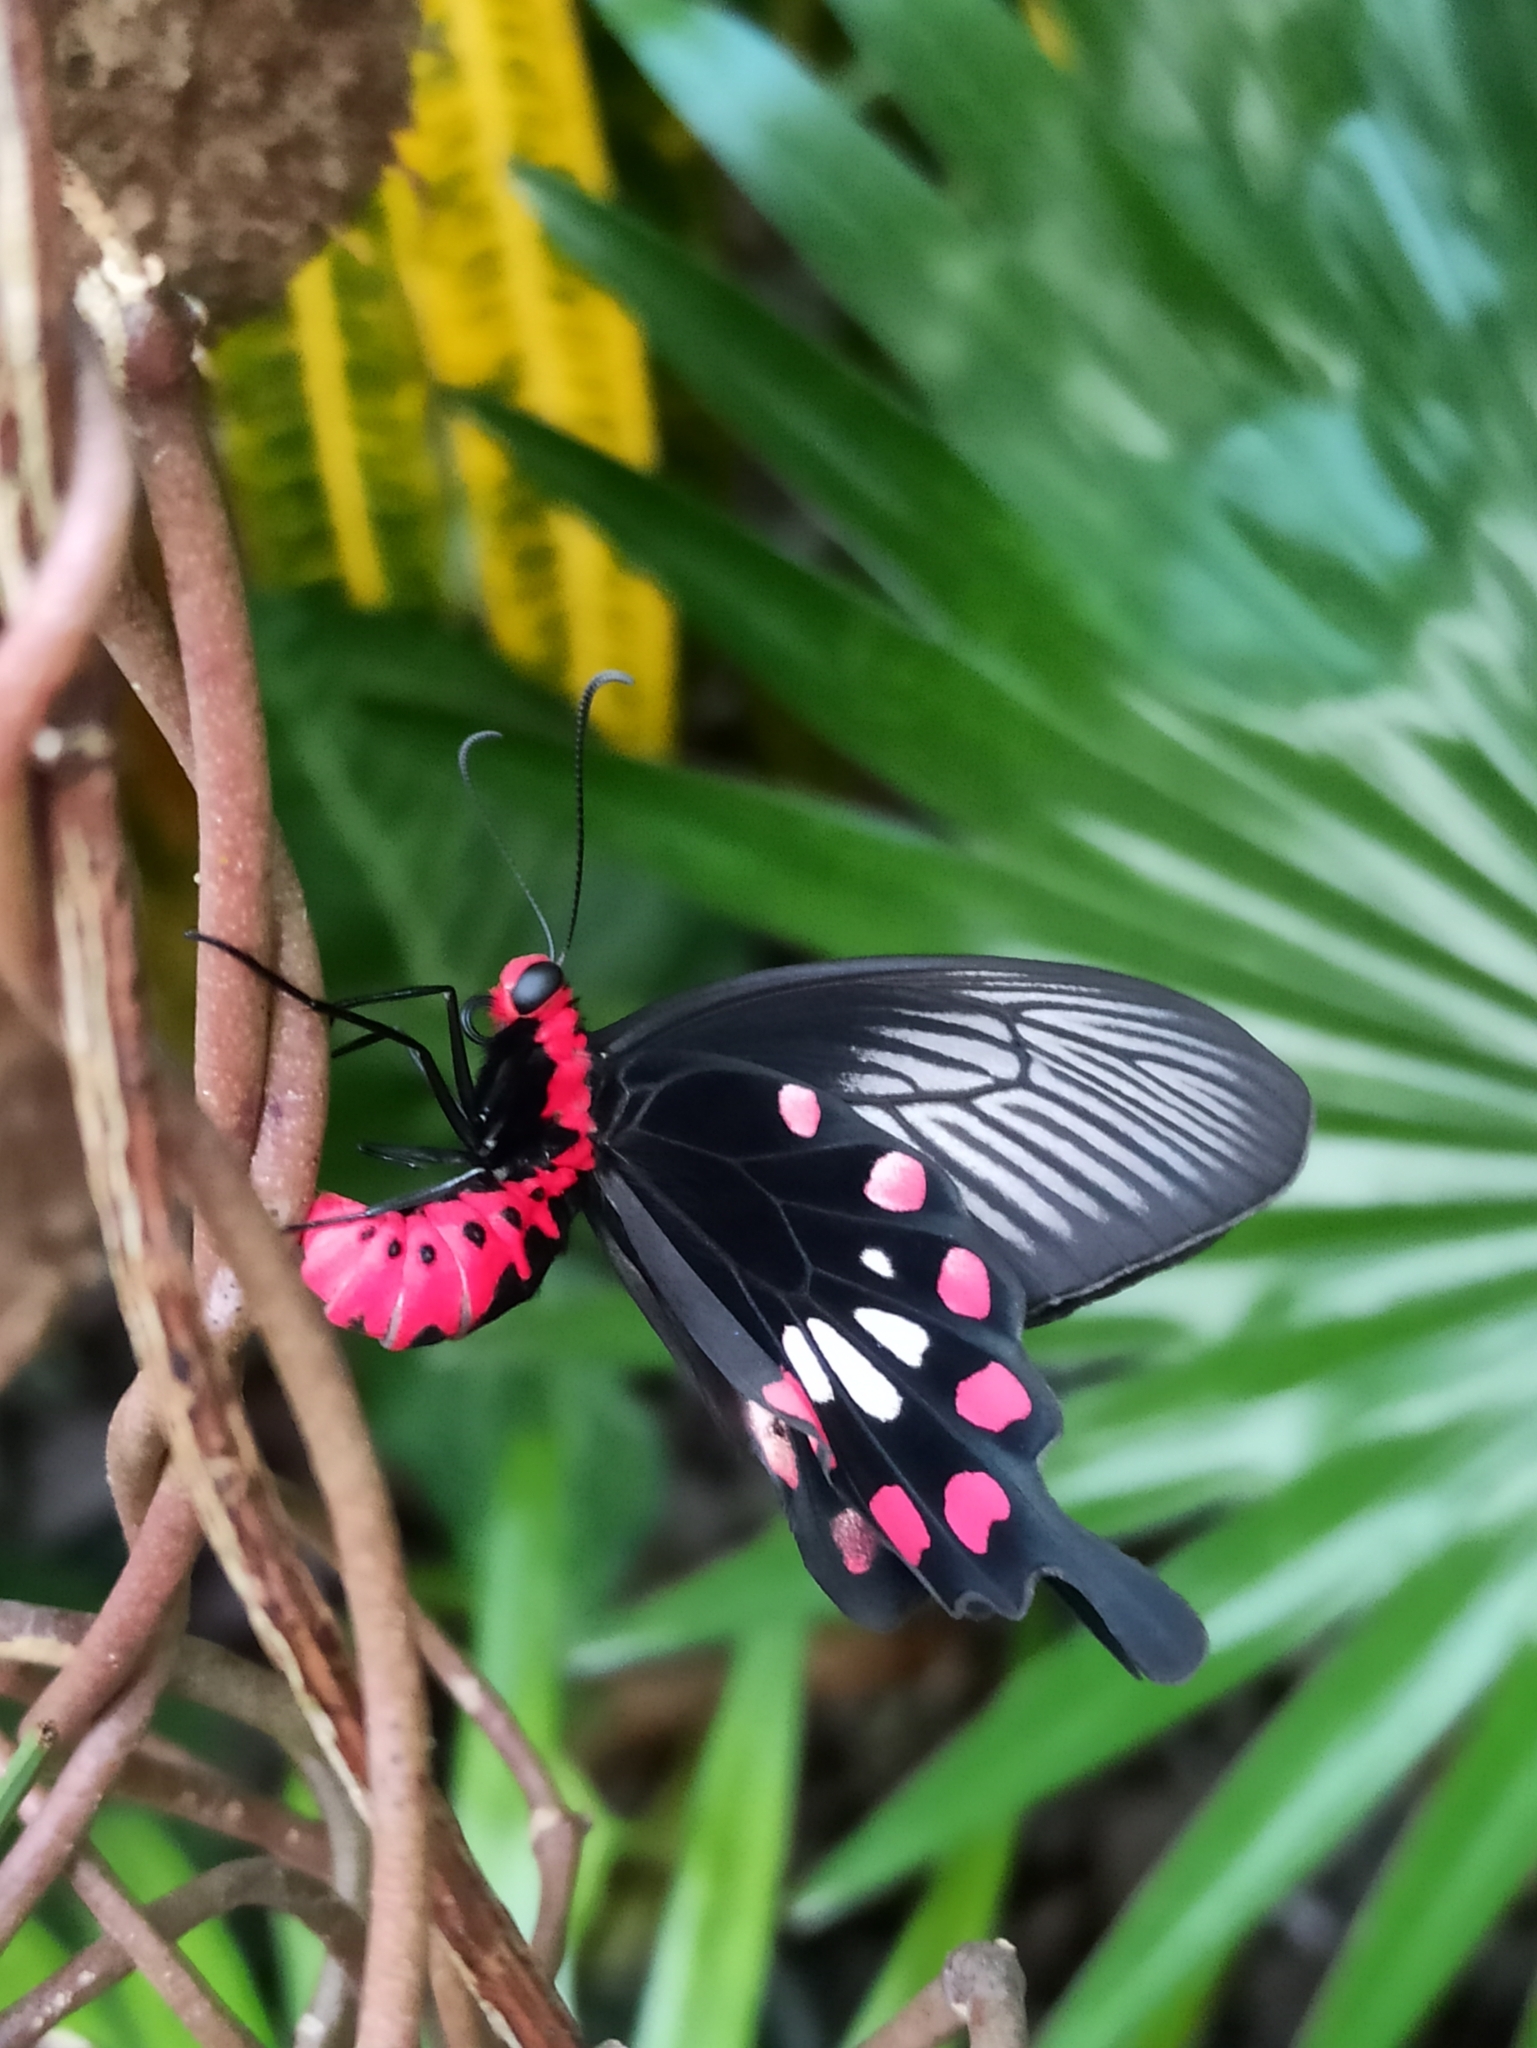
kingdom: Animalia
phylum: Arthropoda
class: Insecta
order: Lepidoptera
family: Papilionidae
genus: Pachliopta
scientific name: Pachliopta aristolochiae
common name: Common rose
